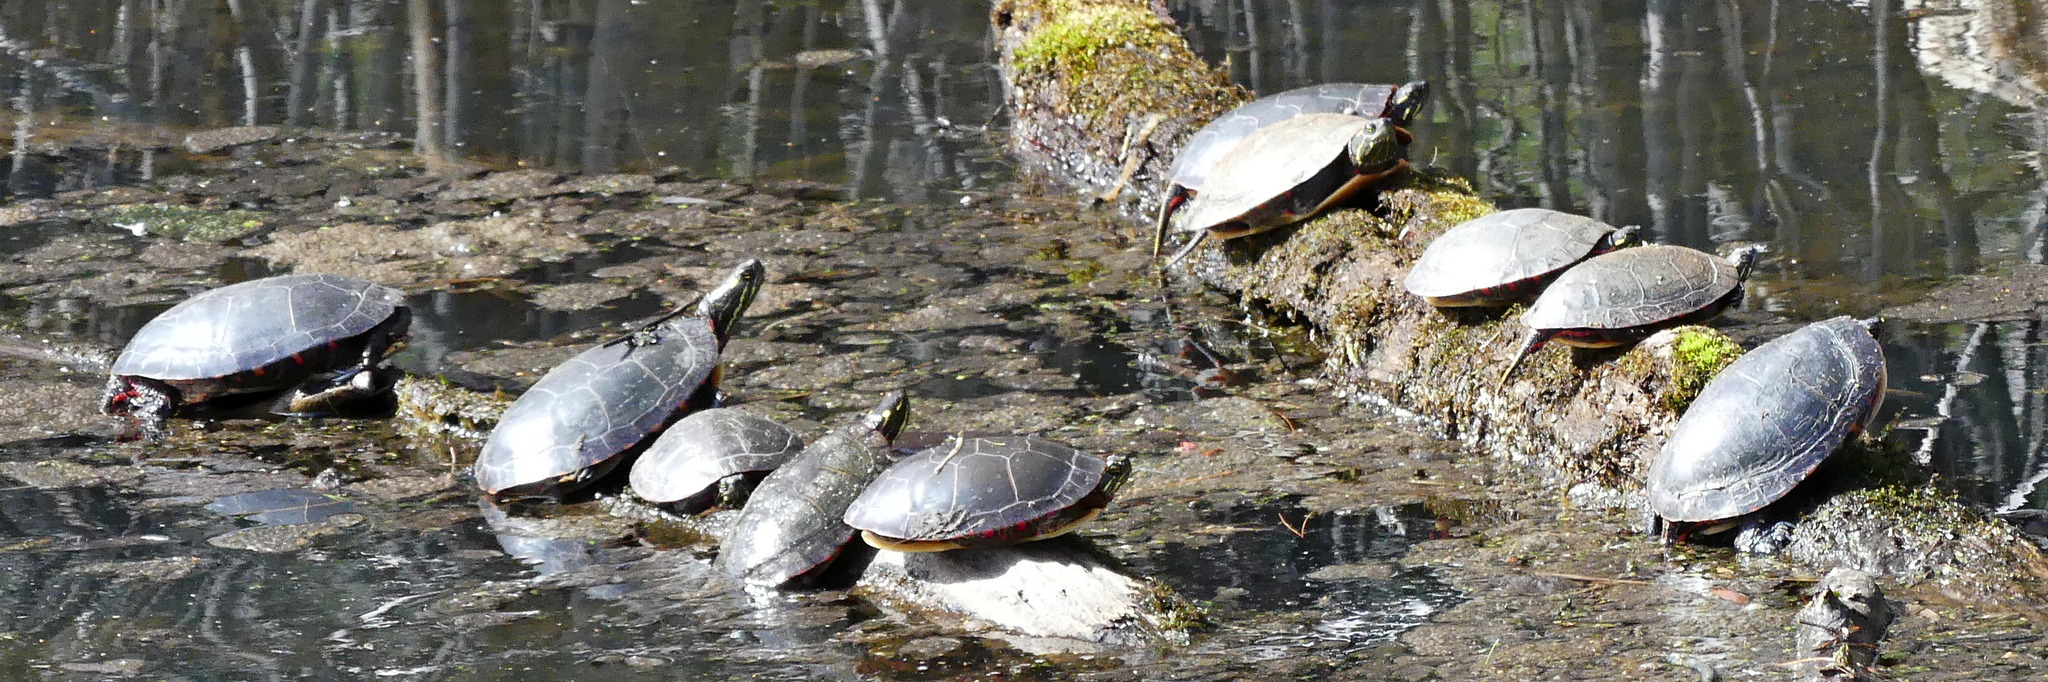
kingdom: Animalia
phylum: Chordata
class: Testudines
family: Emydidae
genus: Chrysemys
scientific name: Chrysemys picta
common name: Painted turtle
